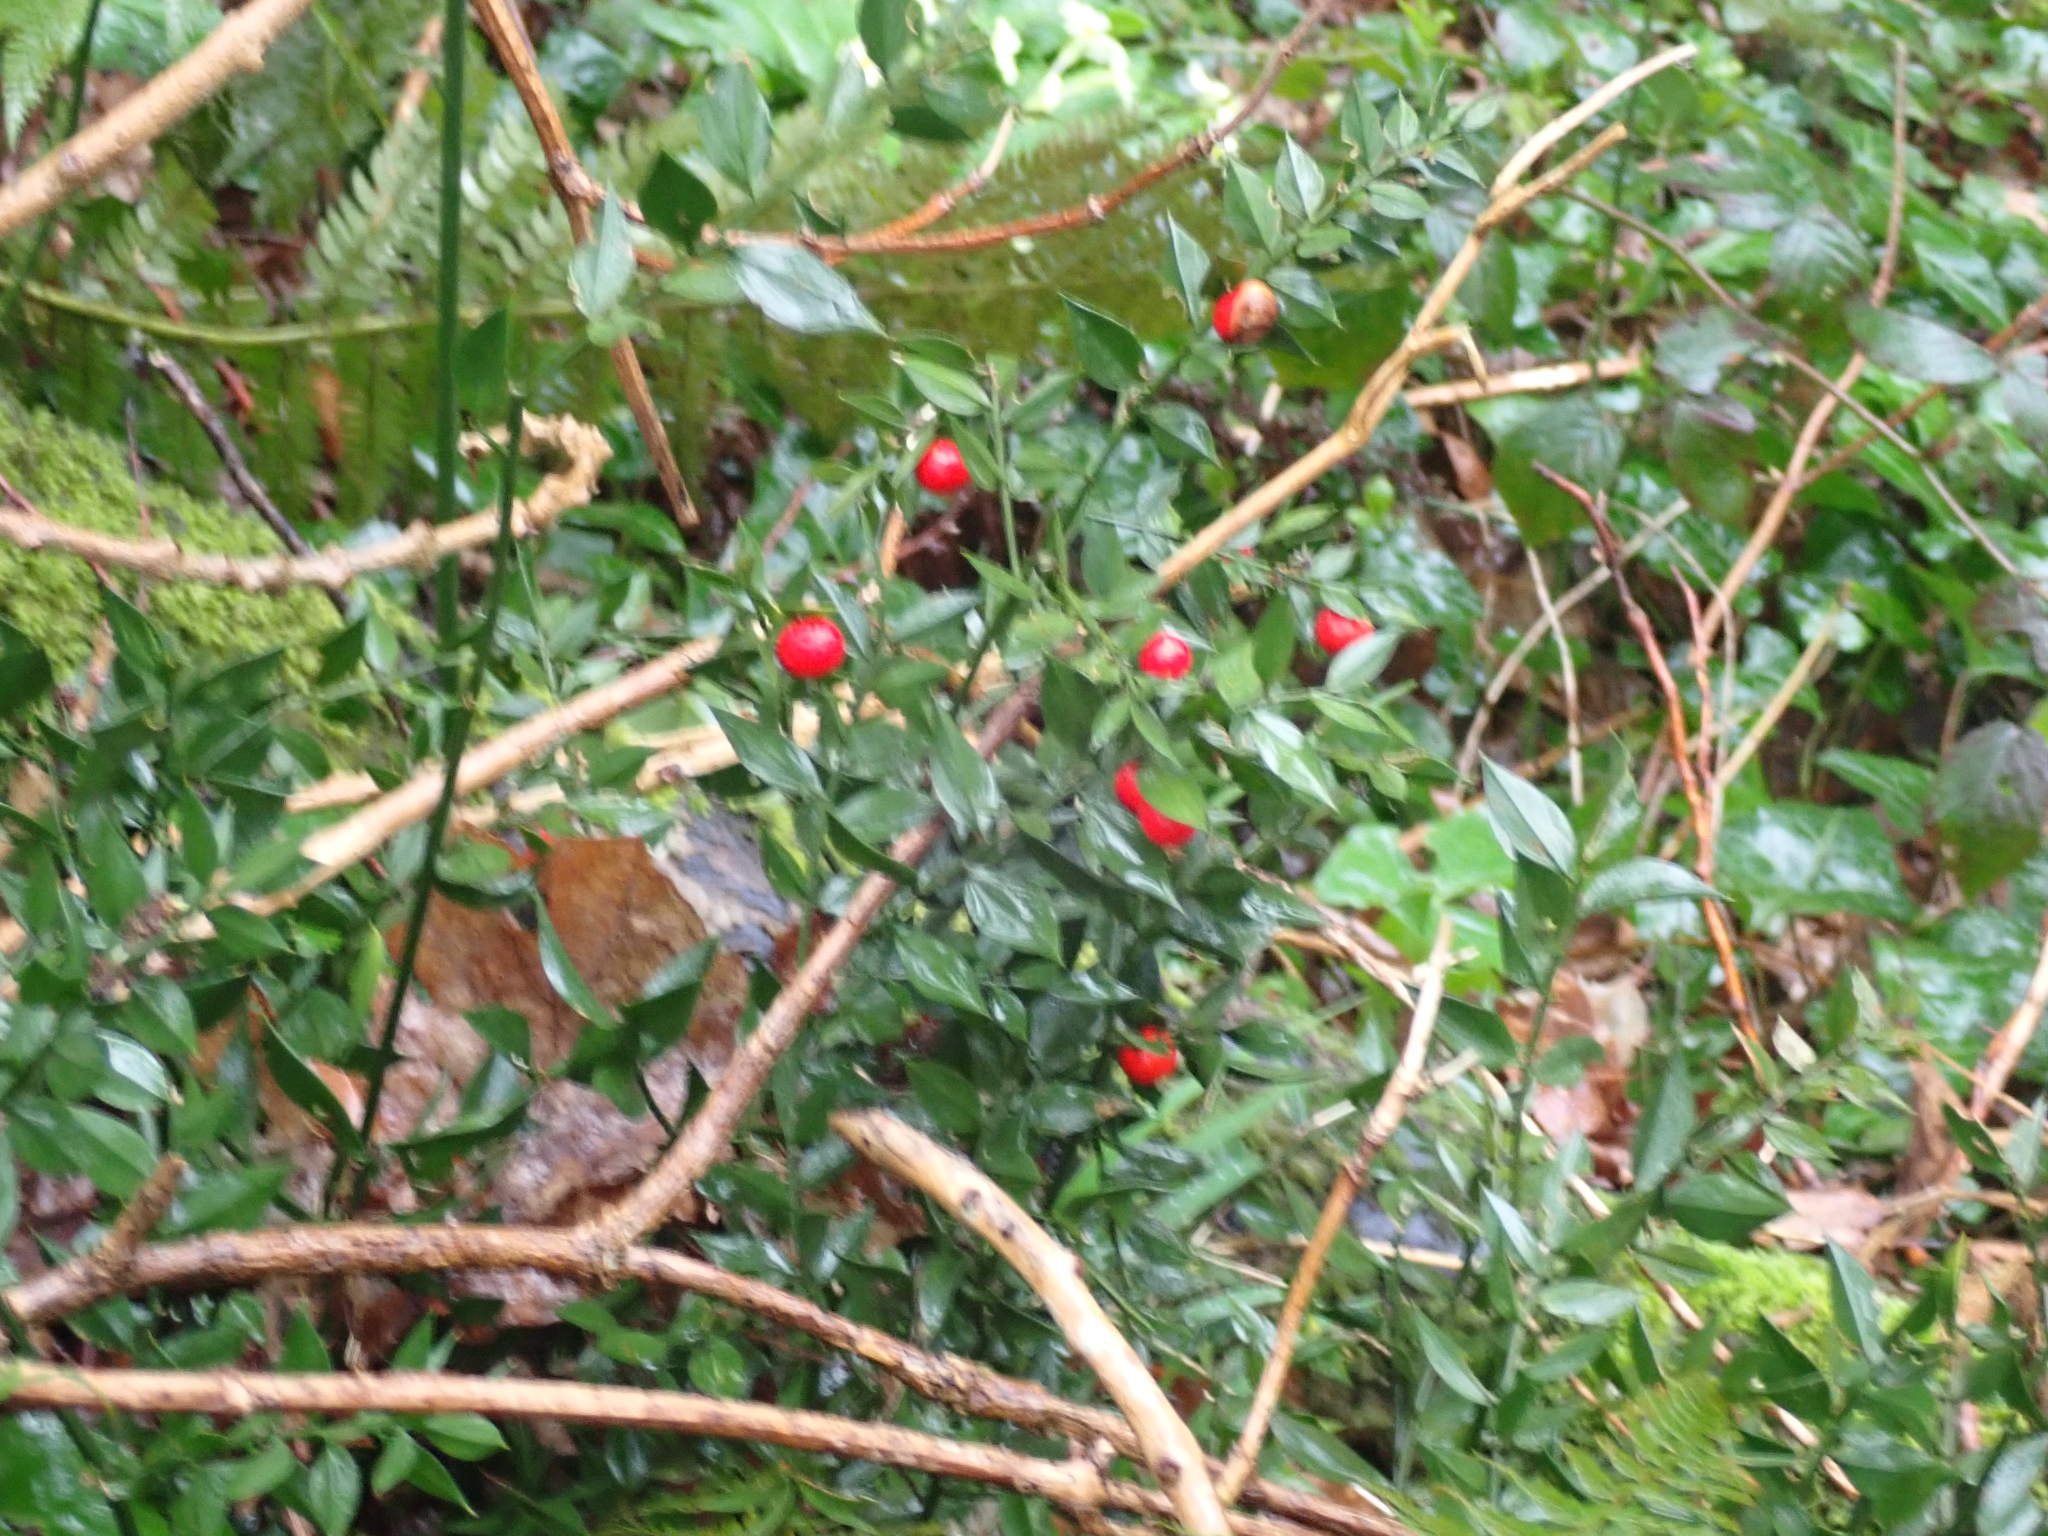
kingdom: Plantae
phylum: Tracheophyta
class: Liliopsida
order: Asparagales
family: Asparagaceae
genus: Ruscus
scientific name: Ruscus aculeatus
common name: Butcher's-broom
